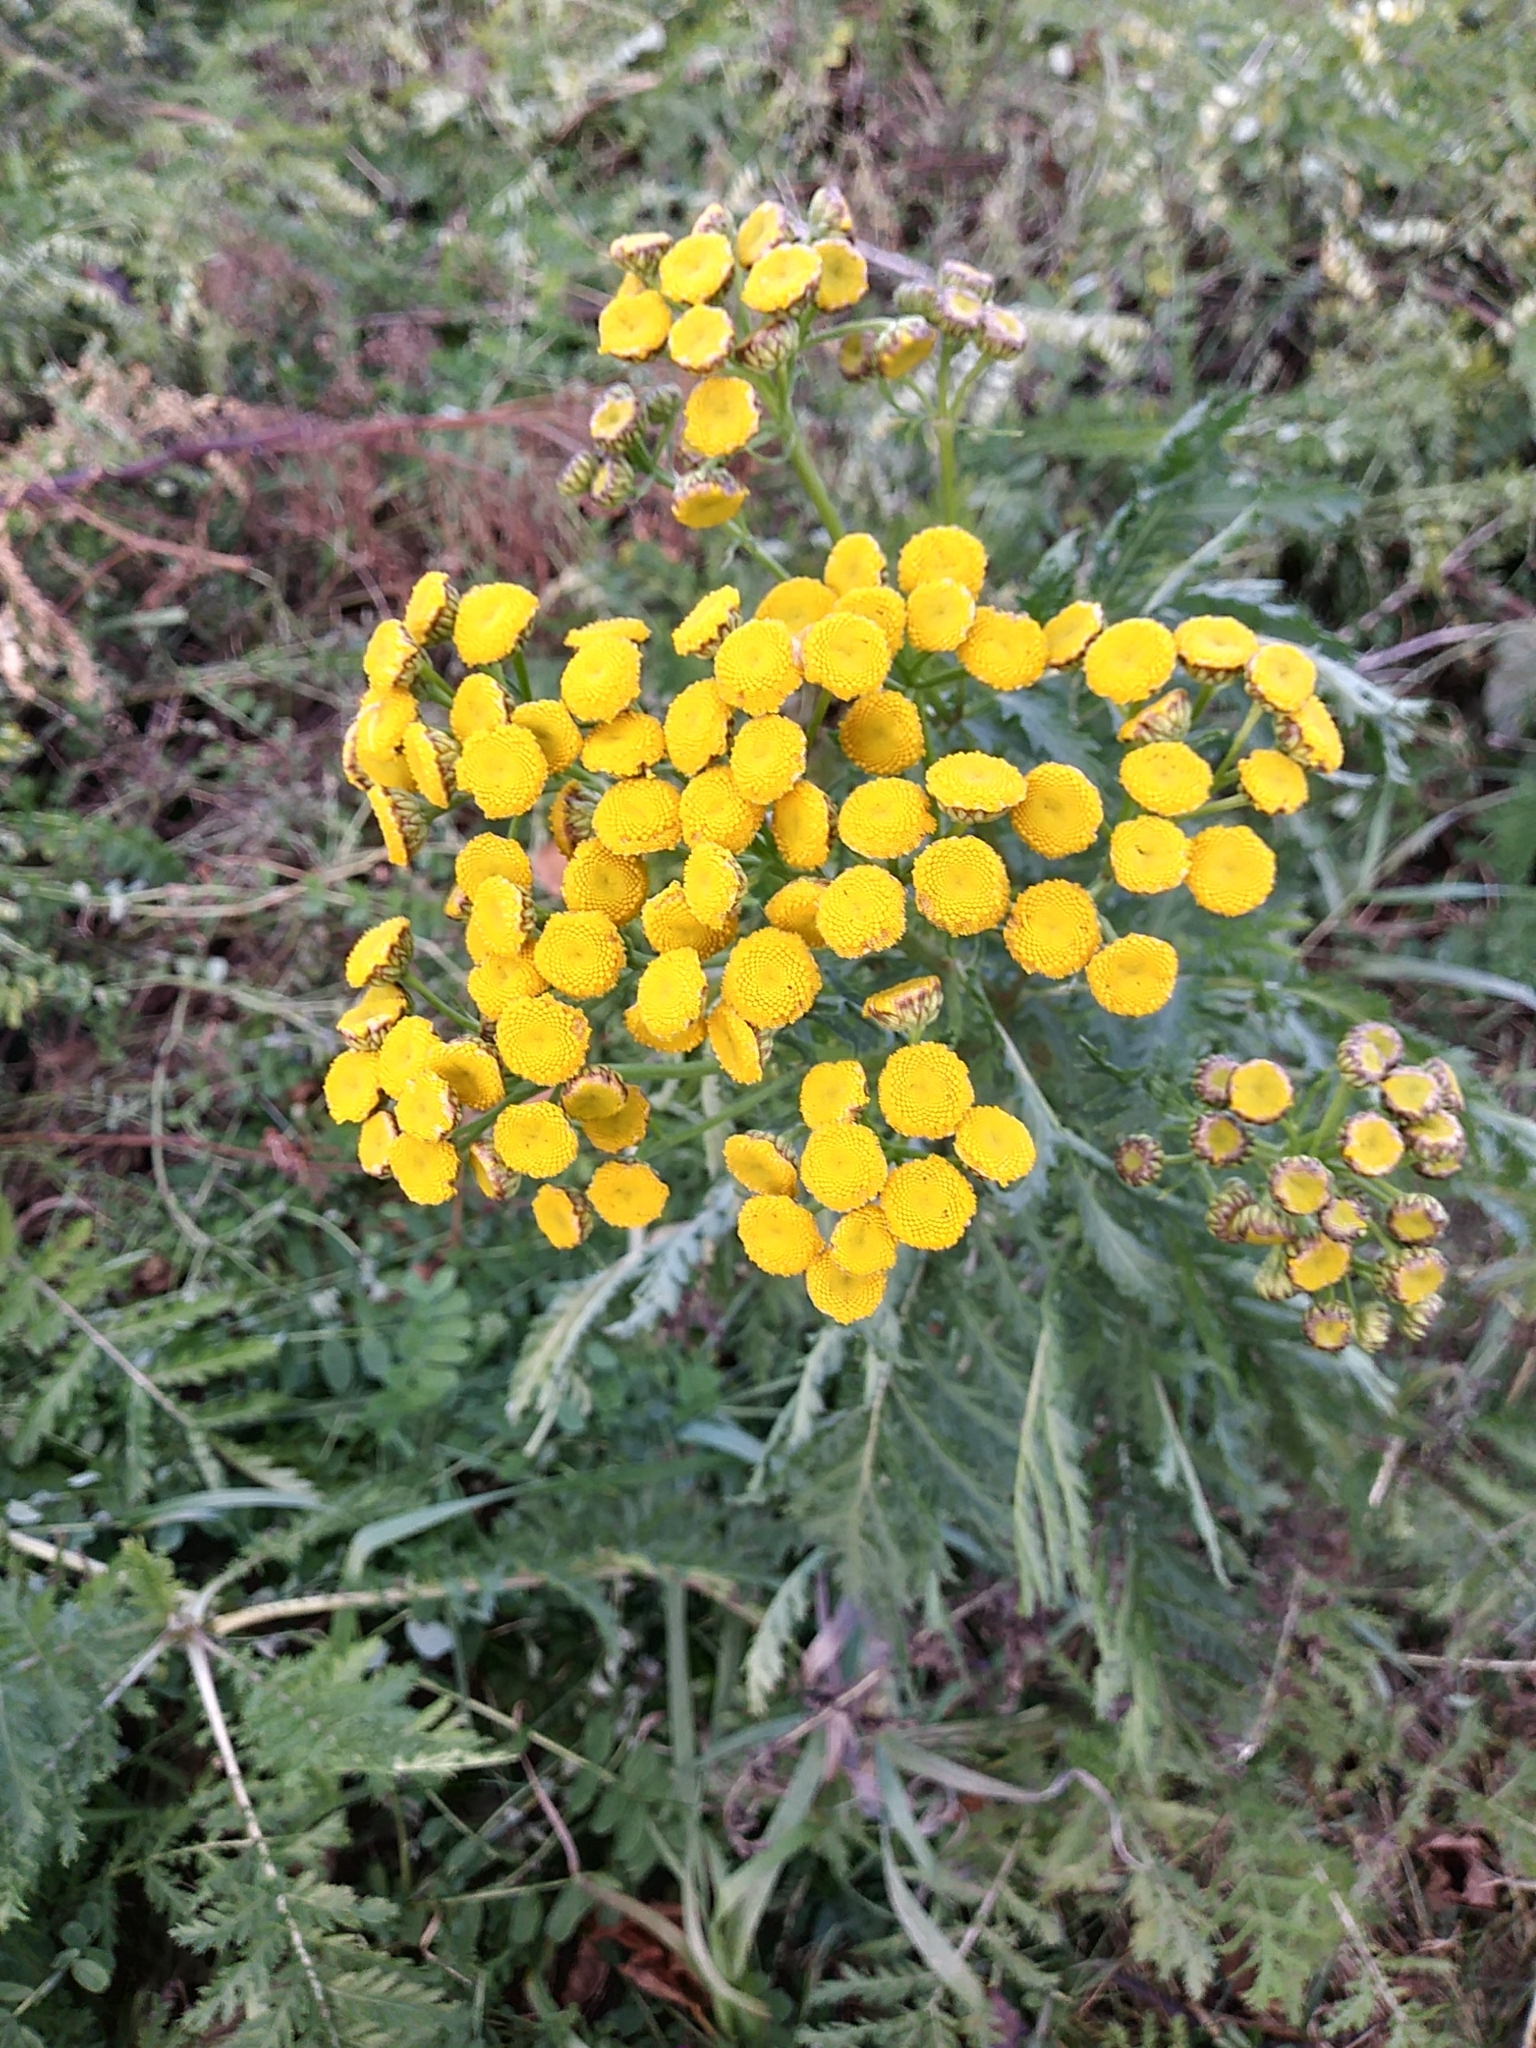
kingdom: Plantae
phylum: Tracheophyta
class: Magnoliopsida
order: Asterales
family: Asteraceae
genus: Tanacetum
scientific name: Tanacetum vulgare
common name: Common tansy
